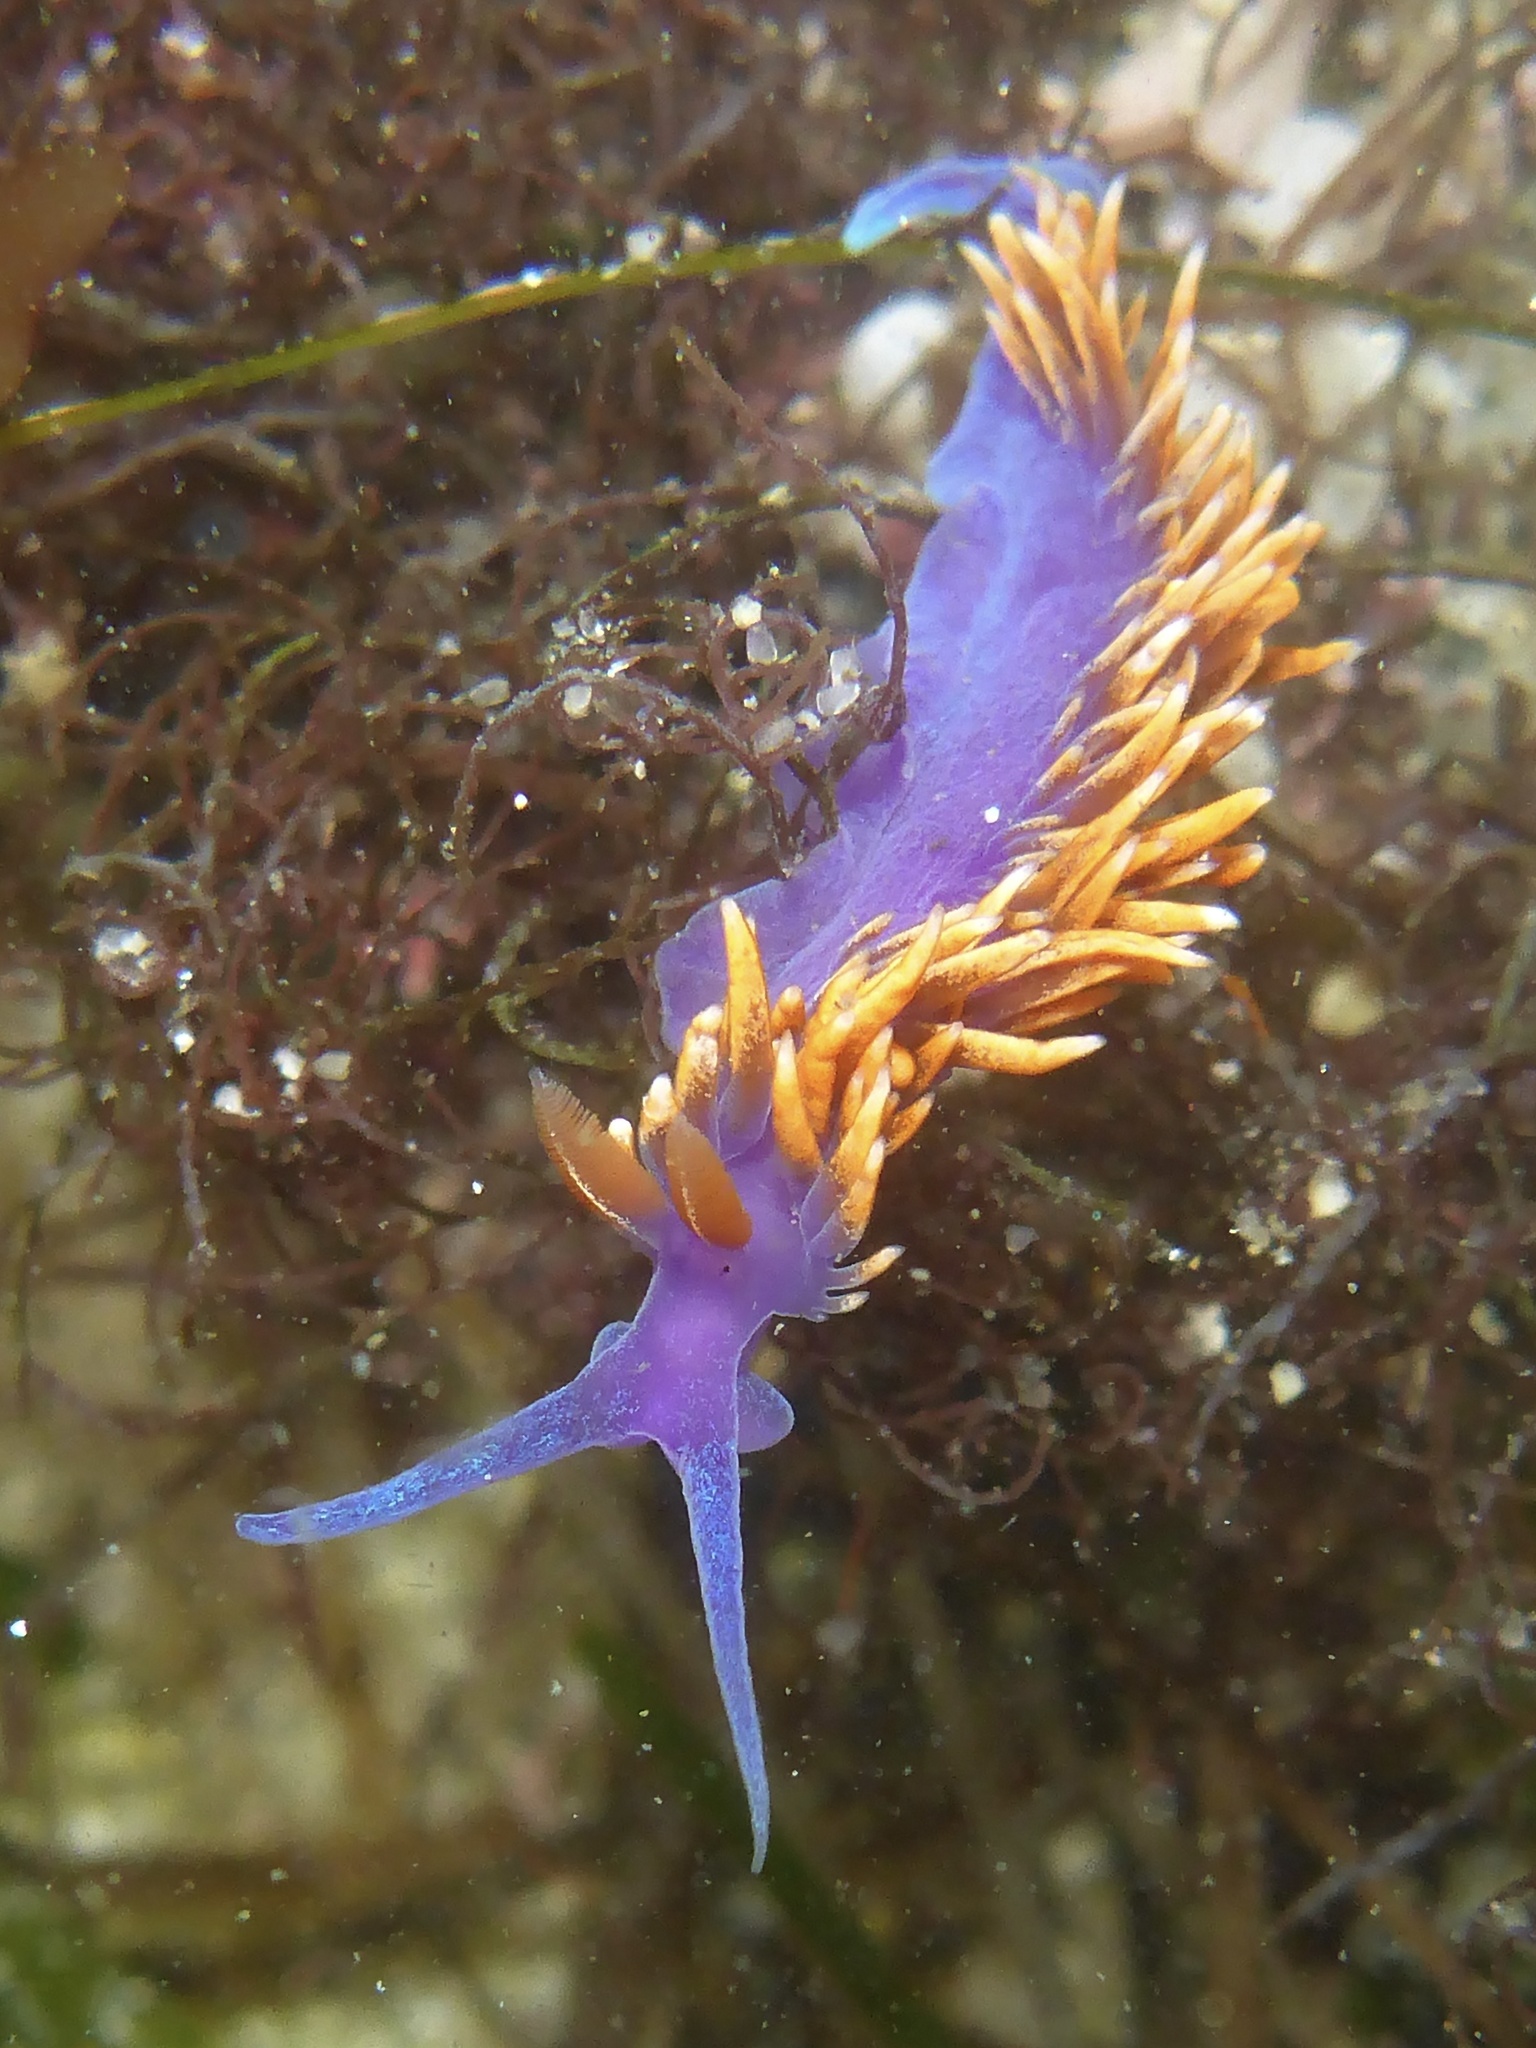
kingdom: Animalia
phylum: Mollusca
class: Gastropoda
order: Nudibranchia
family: Flabellinopsidae
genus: Flabellinopsis
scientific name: Flabellinopsis iodinea
